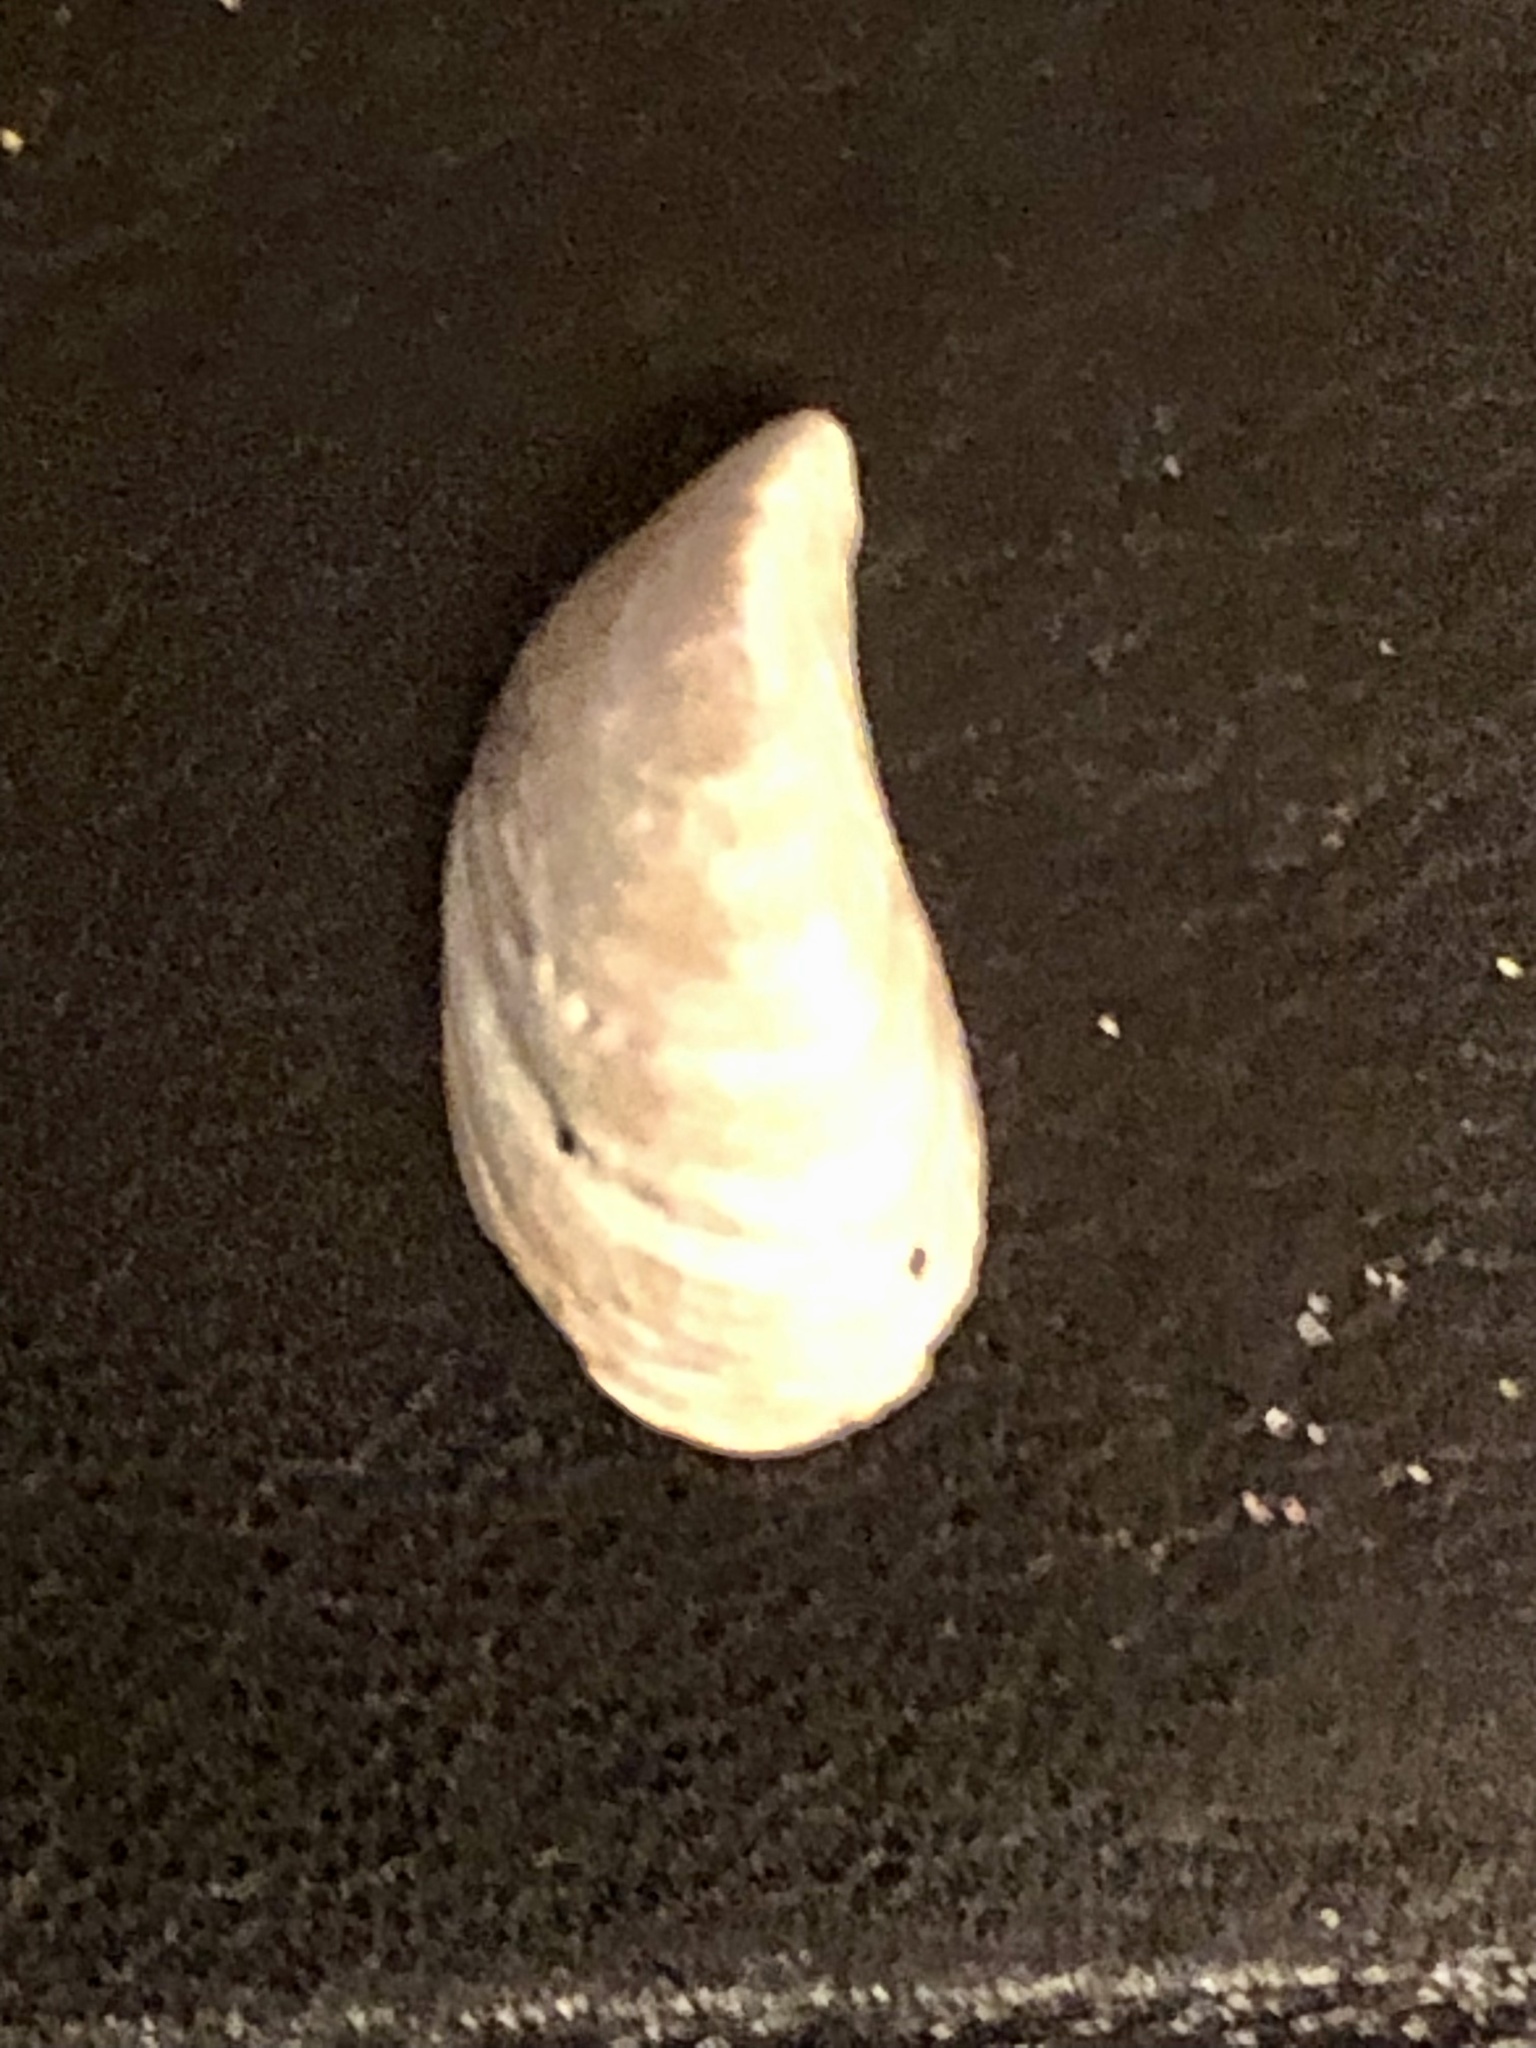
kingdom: Animalia
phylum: Mollusca
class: Bivalvia
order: Myida
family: Dreissenidae
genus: Dreissena
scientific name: Dreissena bugensis
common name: Quagga mussel
